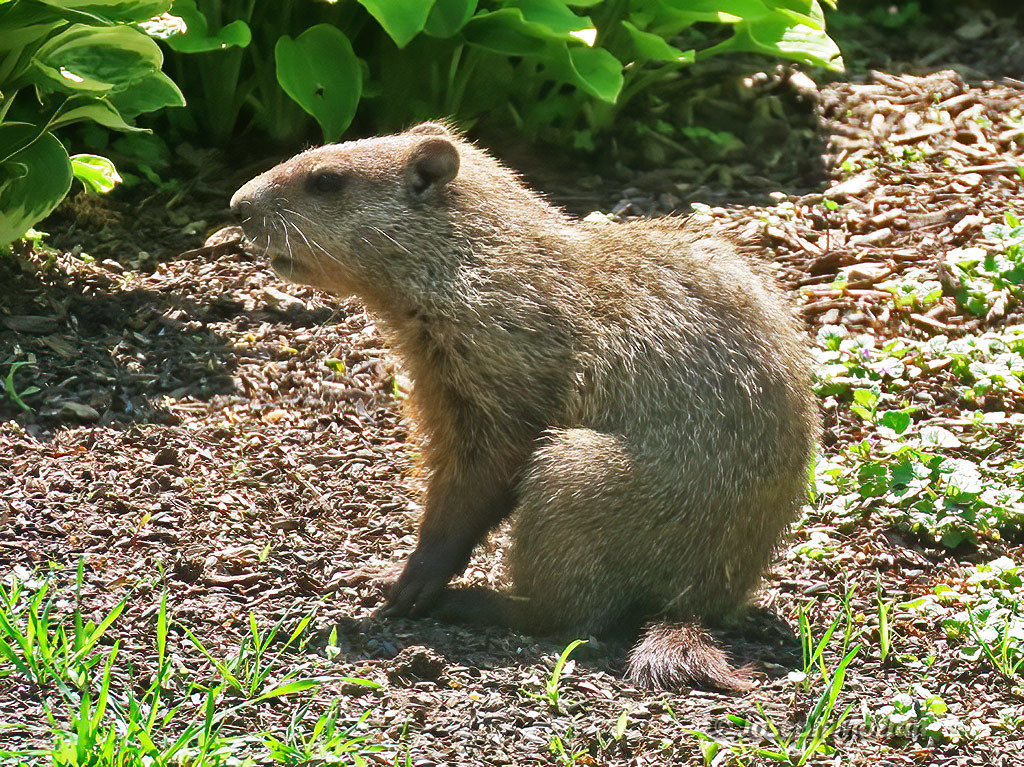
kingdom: Animalia
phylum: Chordata
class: Mammalia
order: Rodentia
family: Sciuridae
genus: Marmota
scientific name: Marmota monax
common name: Groundhog
